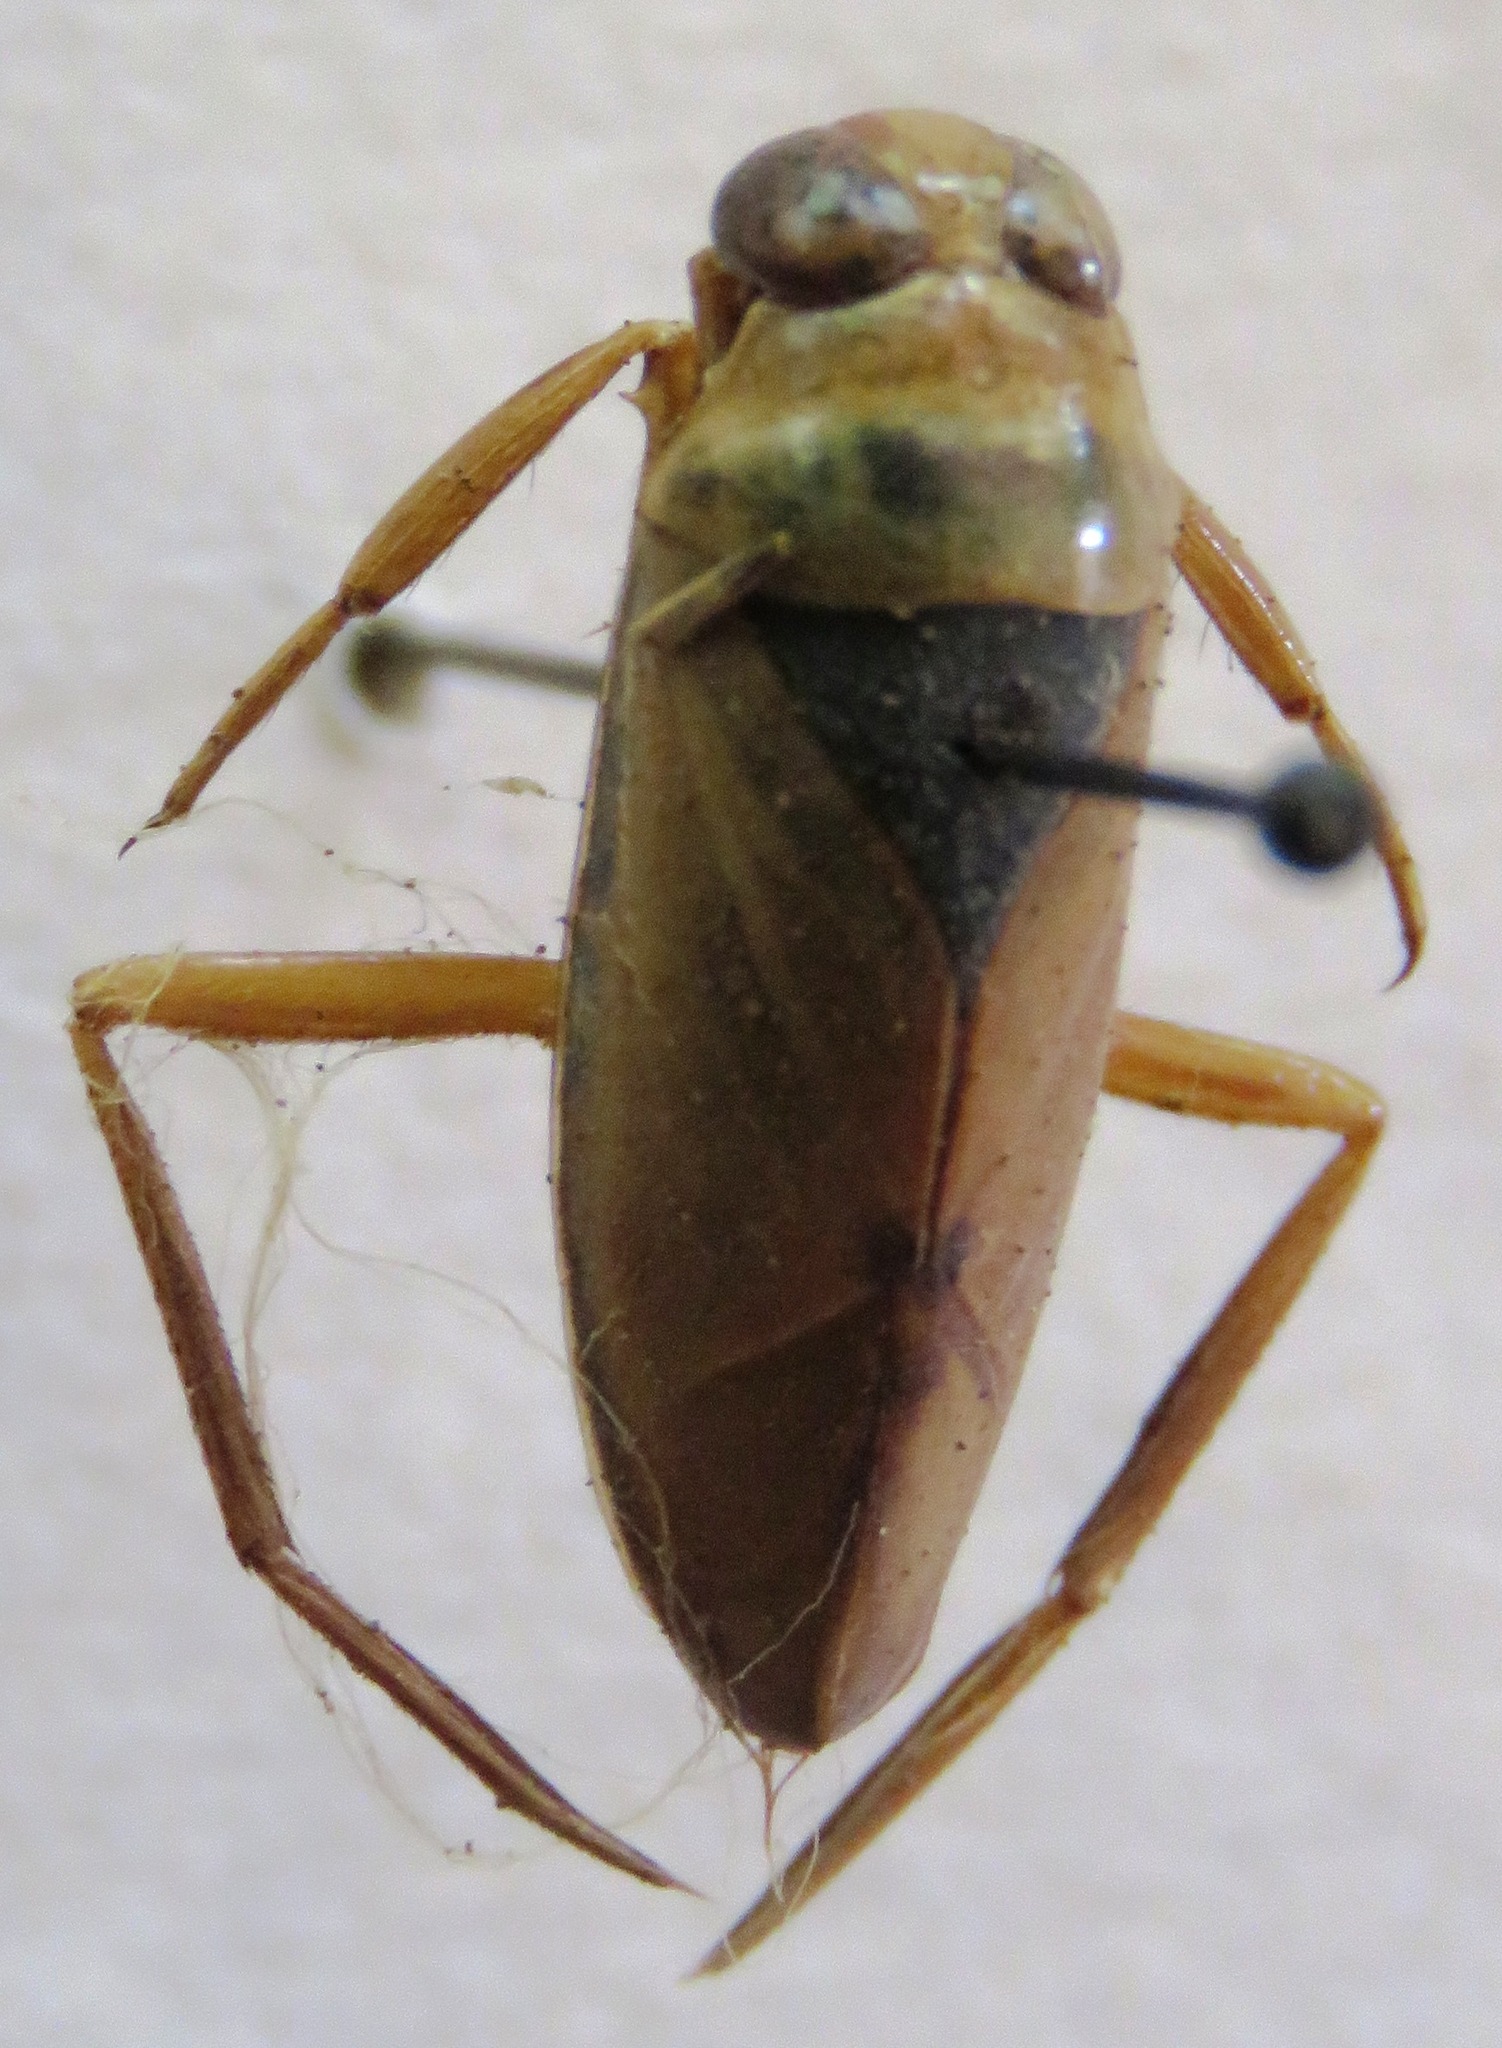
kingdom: Animalia
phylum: Arthropoda
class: Insecta
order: Hemiptera
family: Notonectidae
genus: Notonecta
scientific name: Notonecta glauca
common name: Common water-boatman
